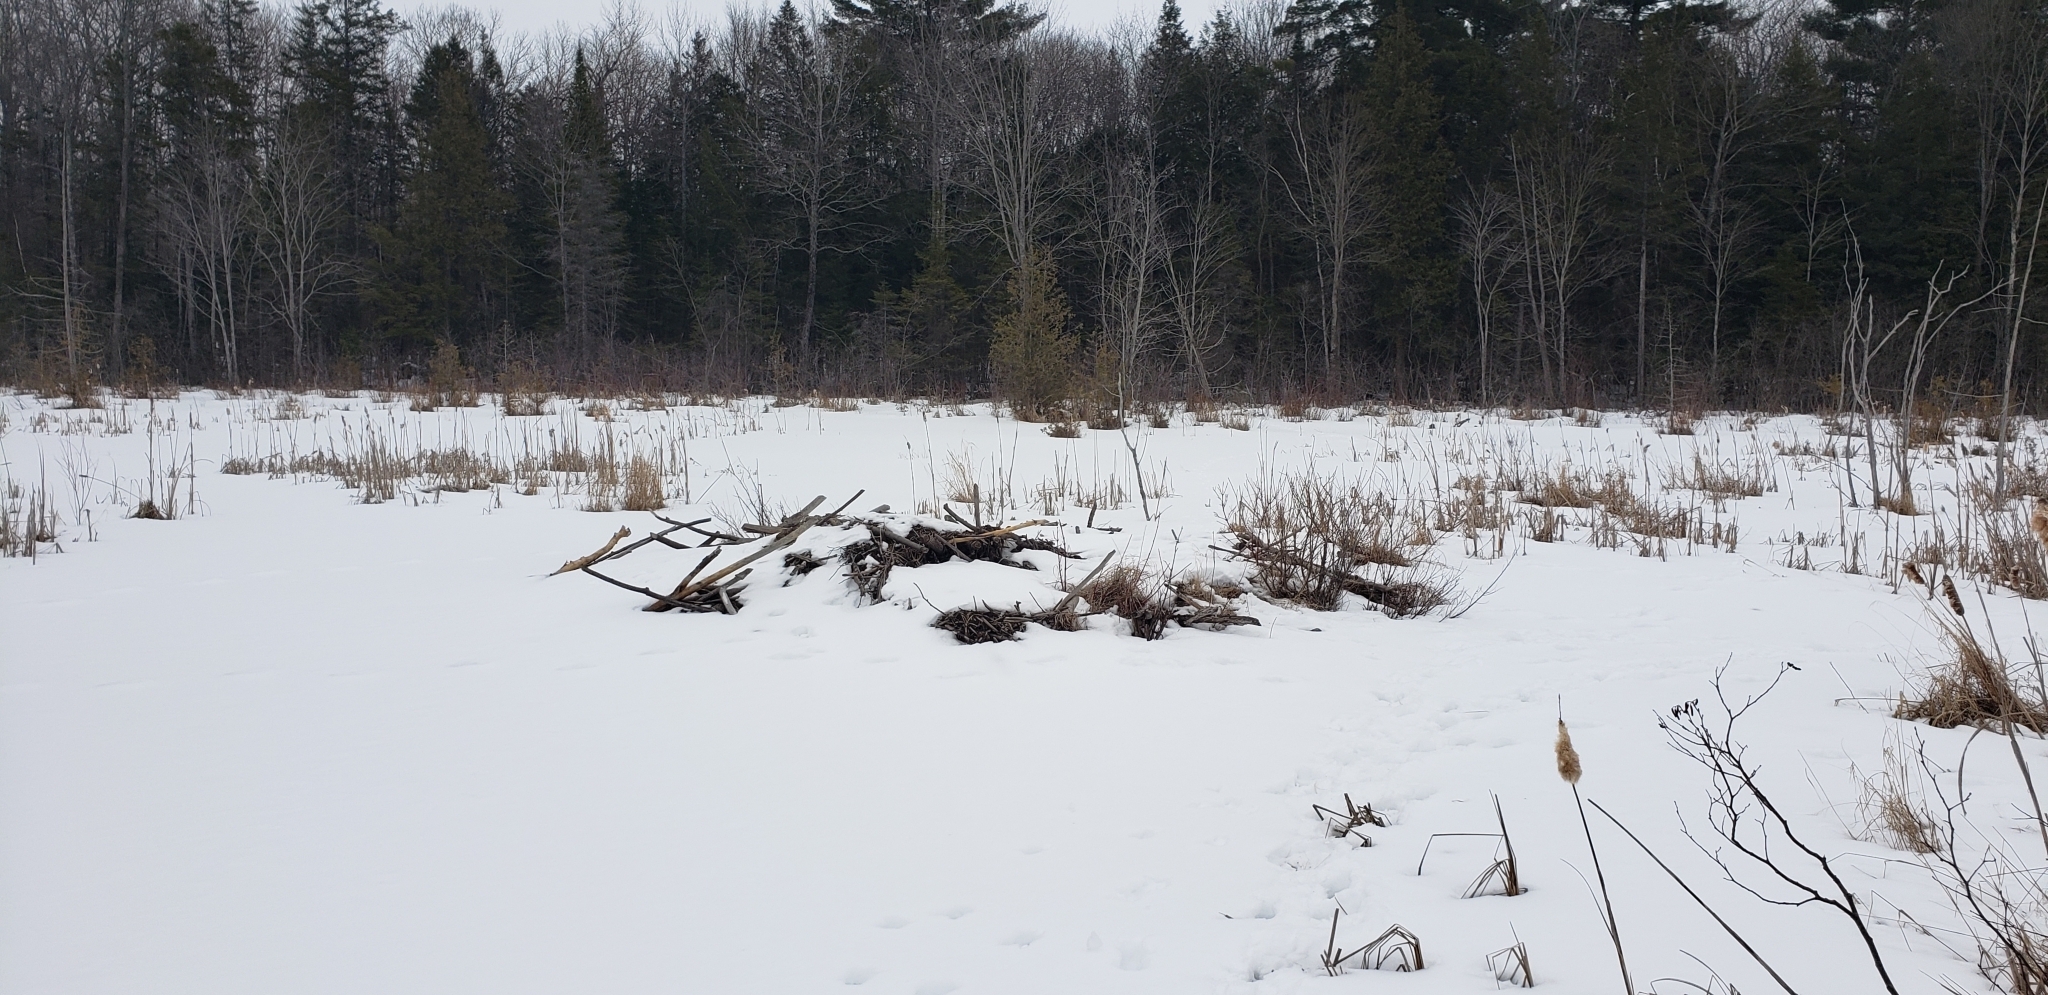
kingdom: Animalia
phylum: Chordata
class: Mammalia
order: Rodentia
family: Castoridae
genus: Castor
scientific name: Castor canadensis
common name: American beaver
